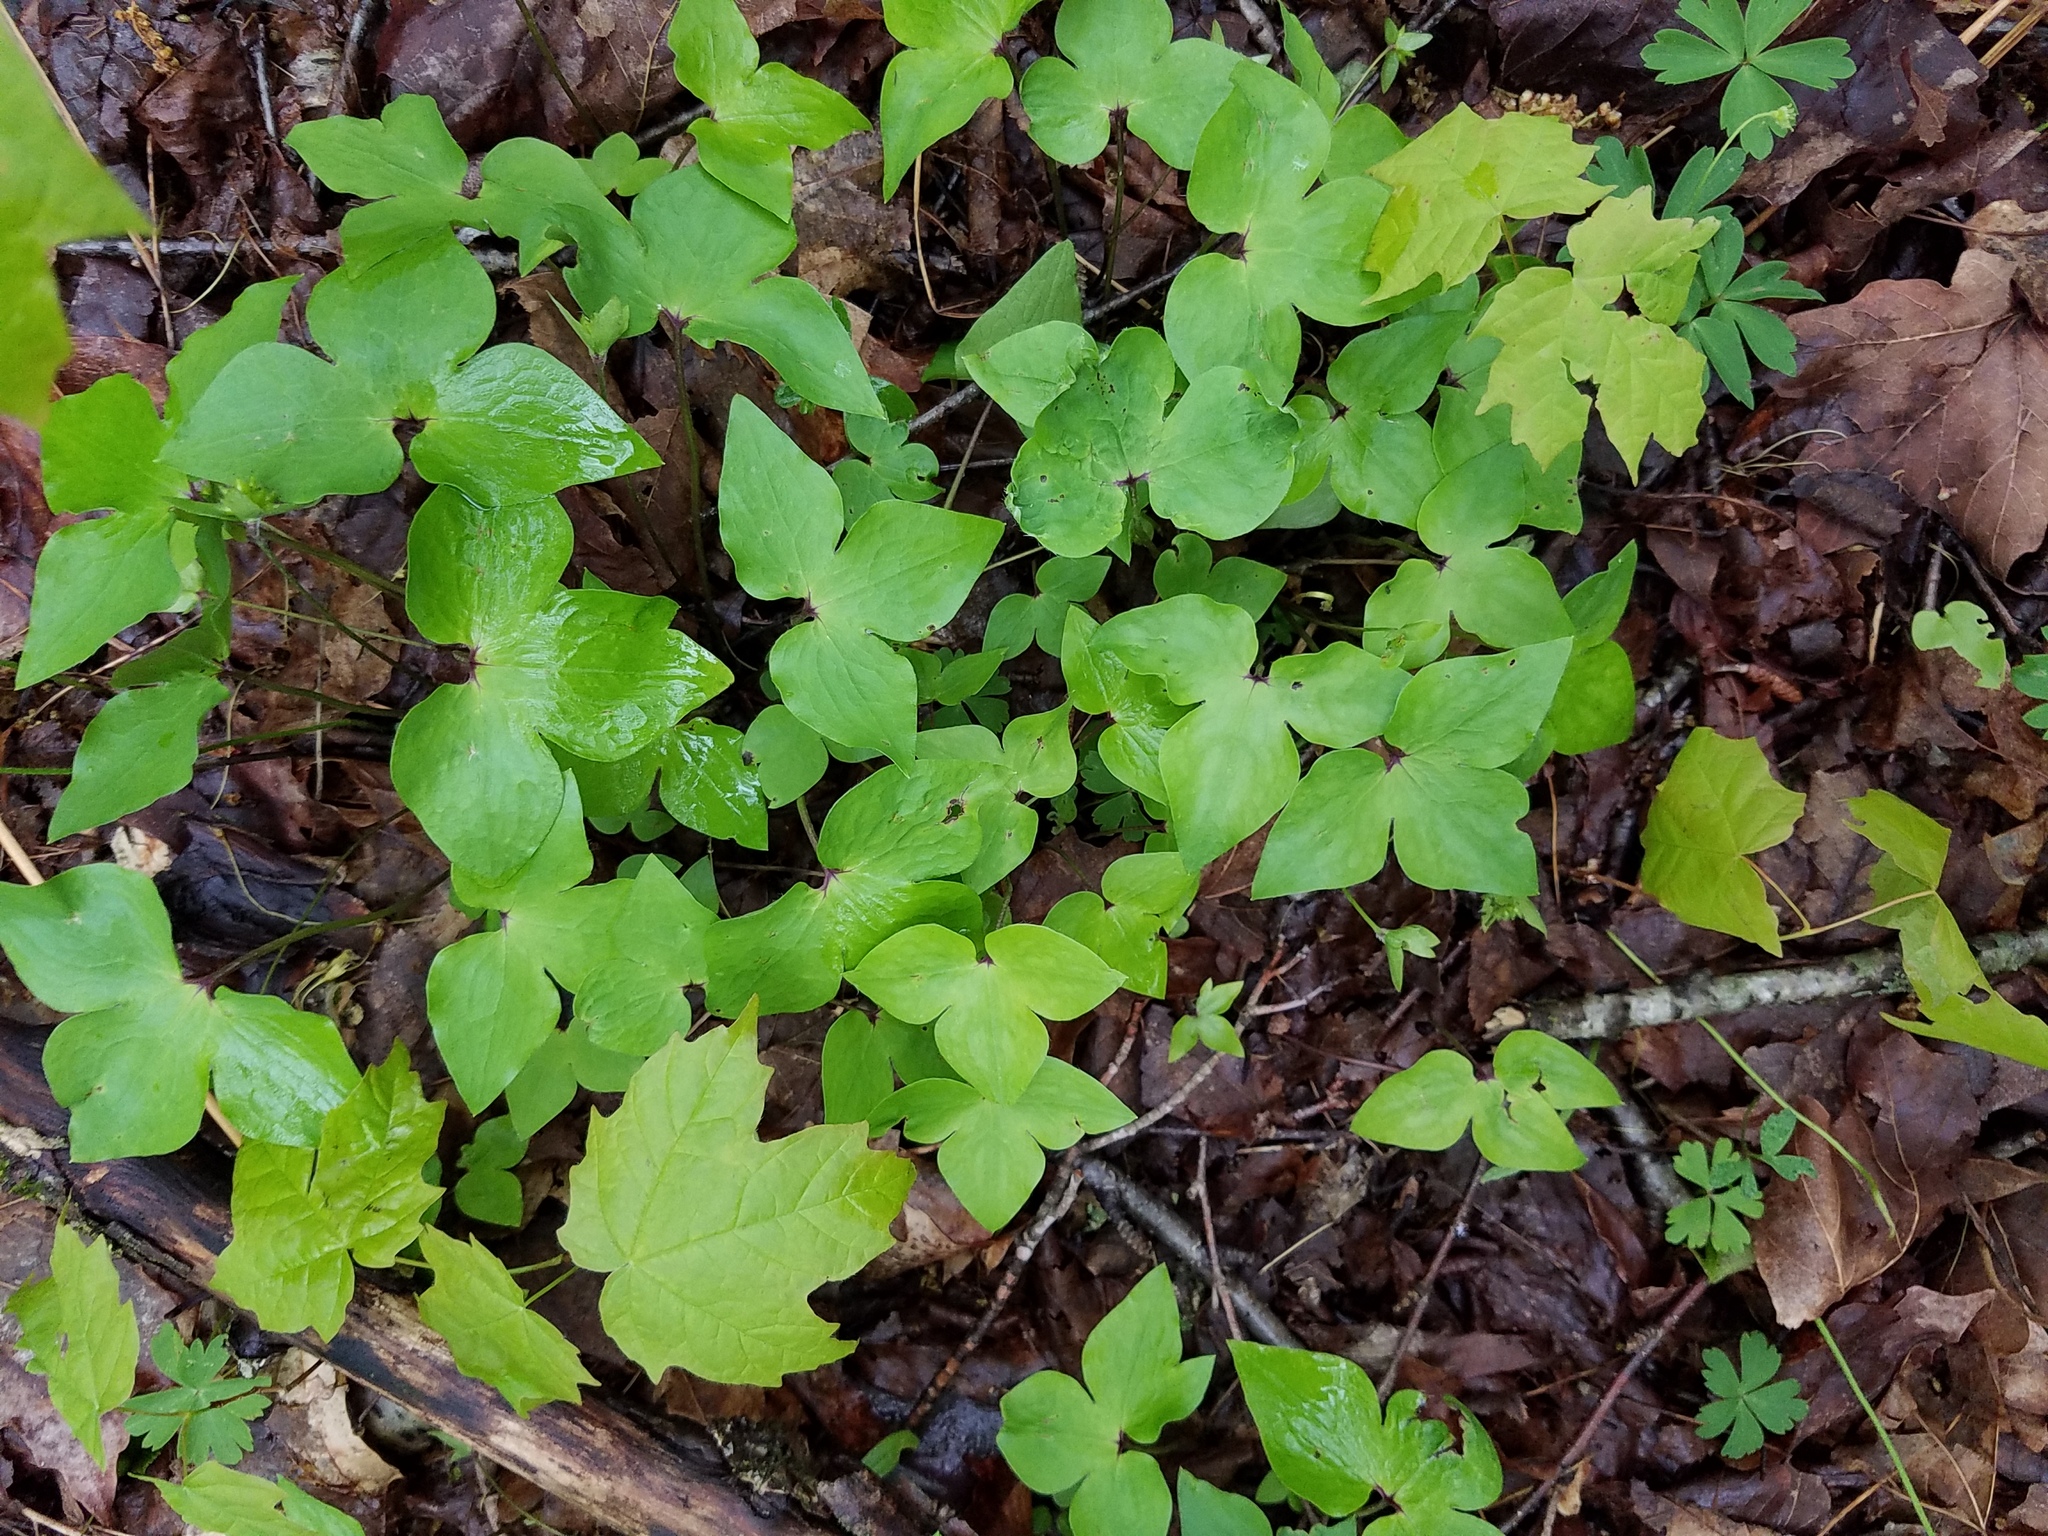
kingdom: Plantae
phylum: Tracheophyta
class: Magnoliopsida
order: Ranunculales
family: Ranunculaceae
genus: Hepatica
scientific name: Hepatica acutiloba
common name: Sharp-lobed hepatica
